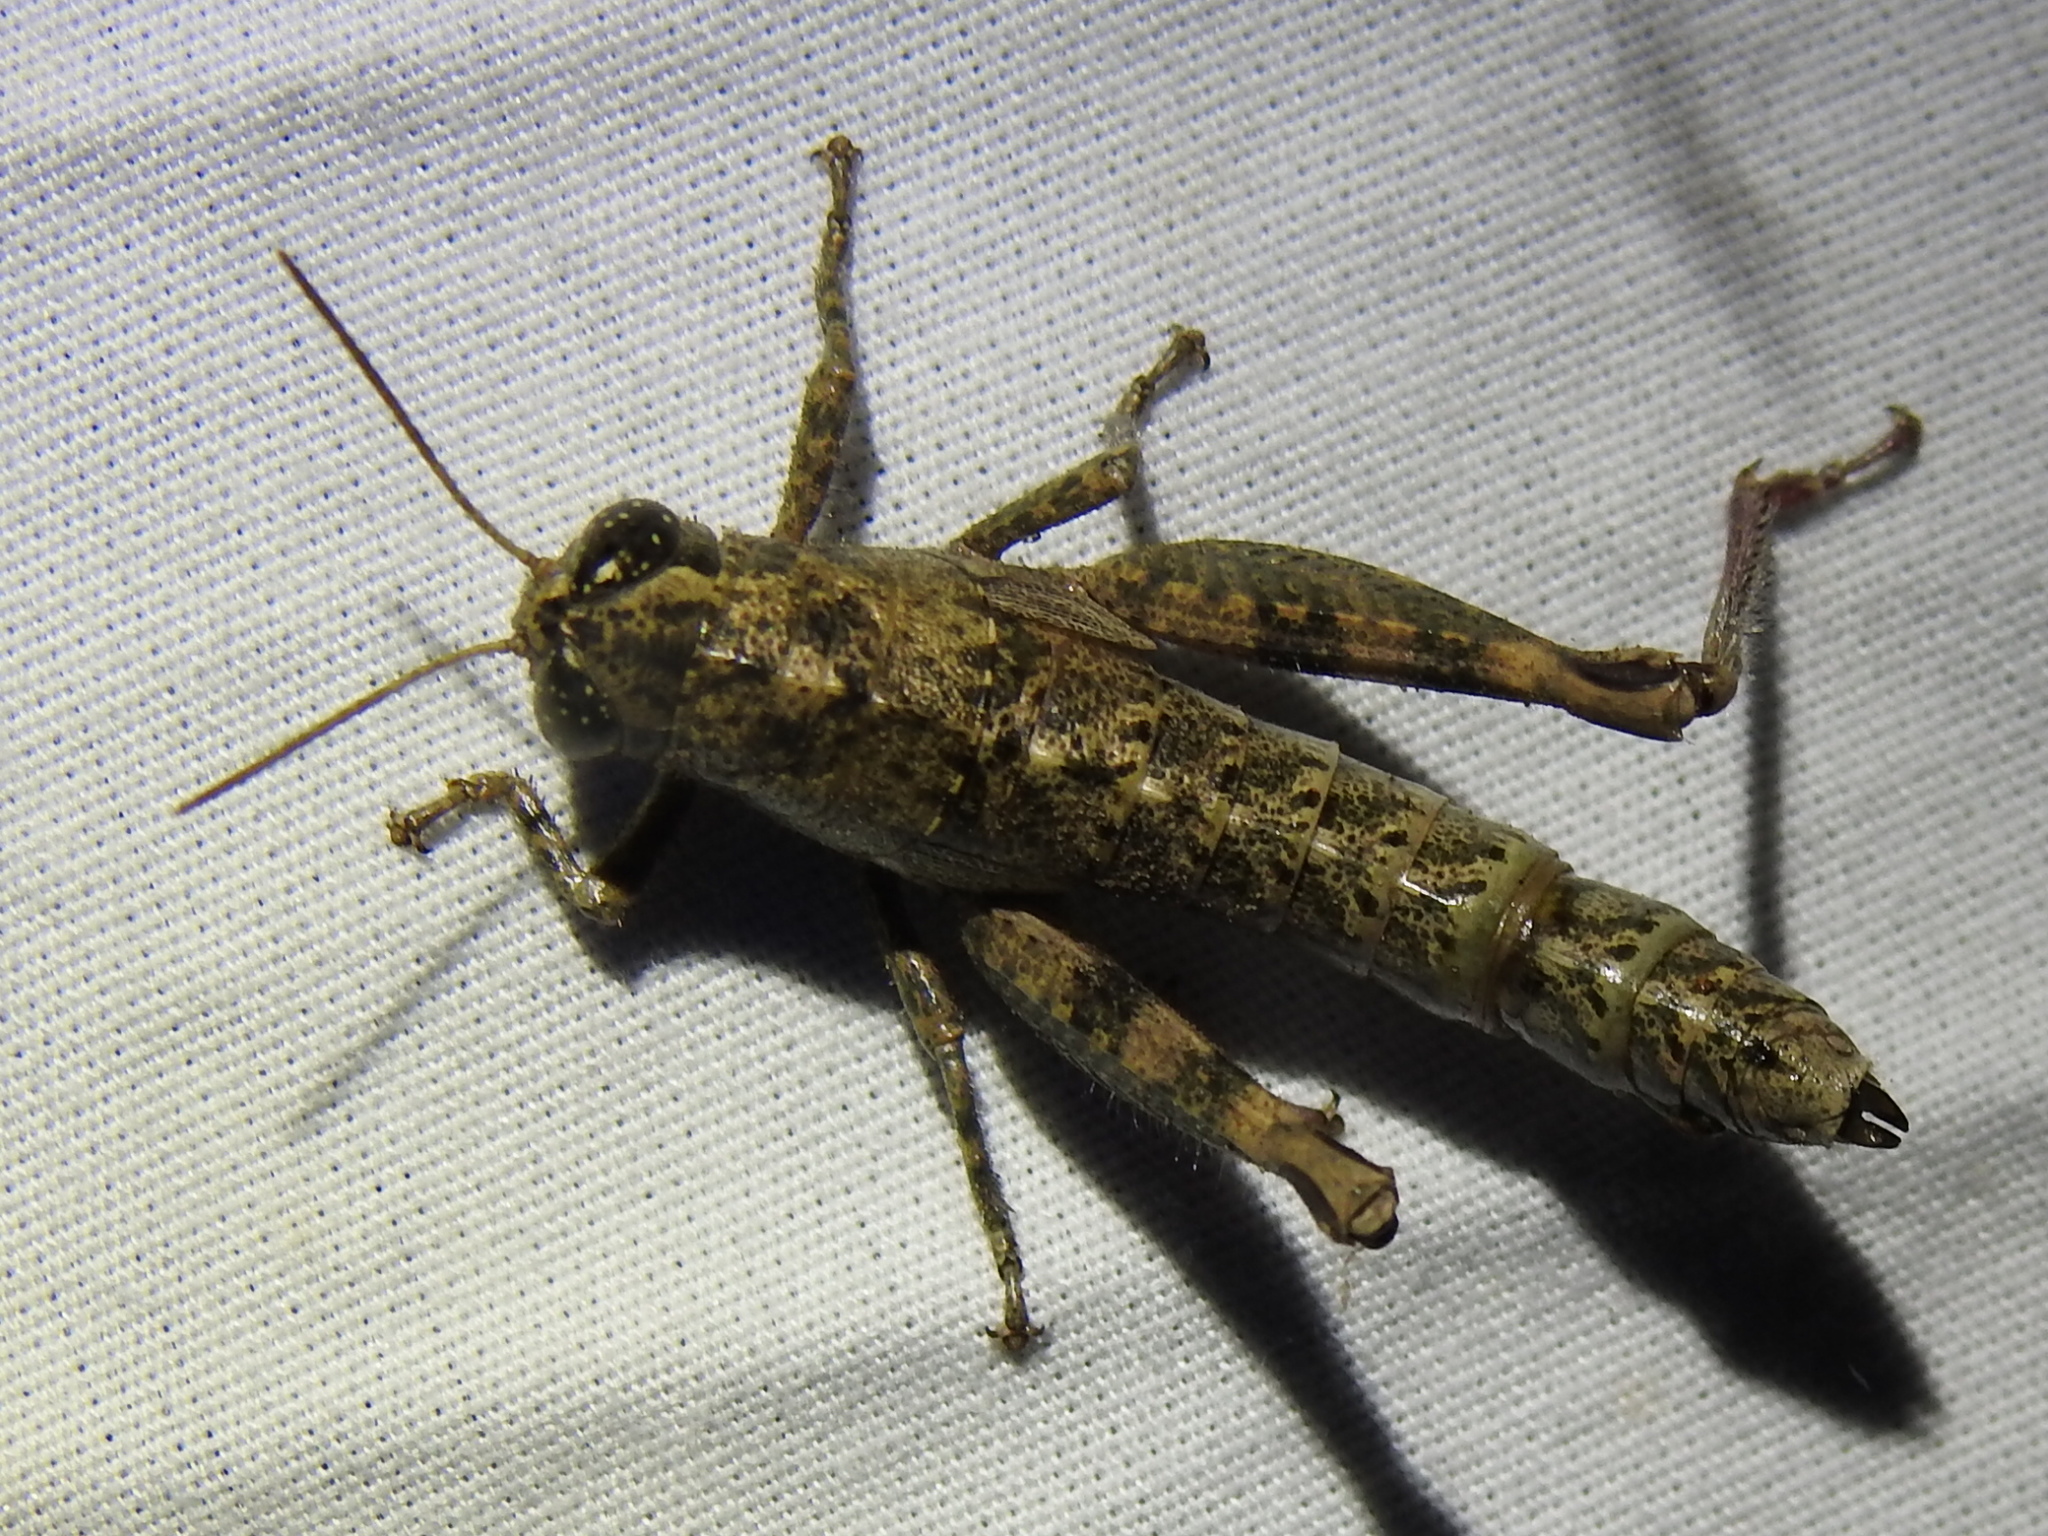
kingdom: Animalia
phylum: Arthropoda
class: Insecta
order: Orthoptera
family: Acrididae
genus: Phaulotettix
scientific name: Phaulotettix compressus
